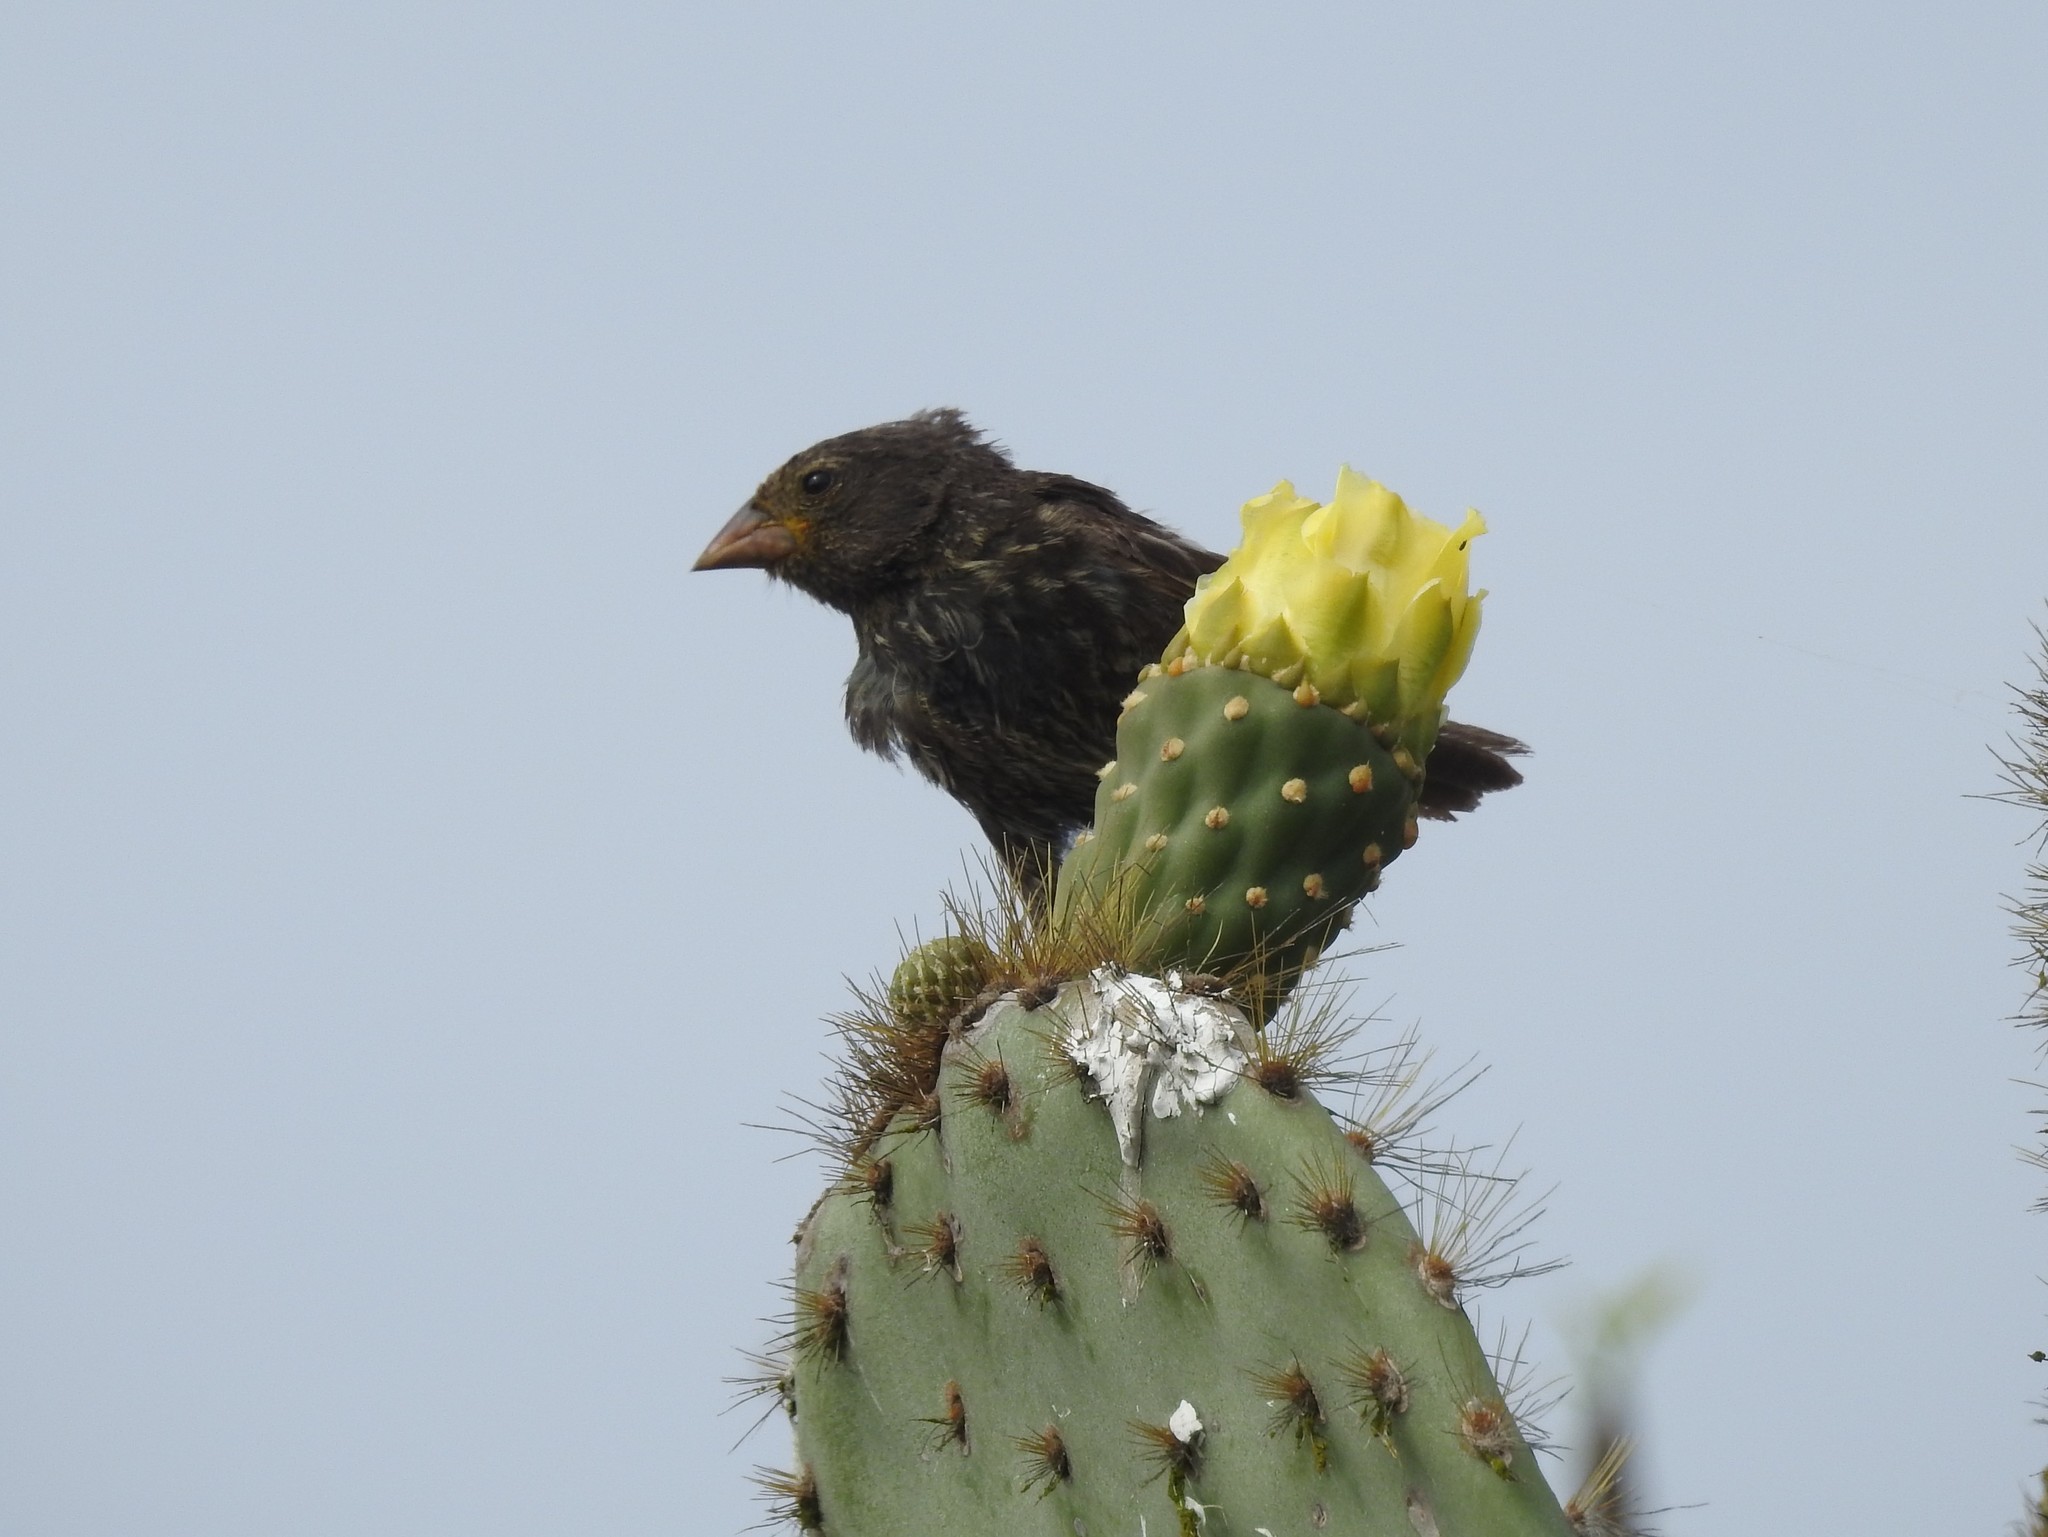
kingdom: Animalia
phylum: Chordata
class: Aves
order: Passeriformes
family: Thraupidae
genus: Geospiza
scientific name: Geospiza acutirostris
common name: Genovesa ground-finch
